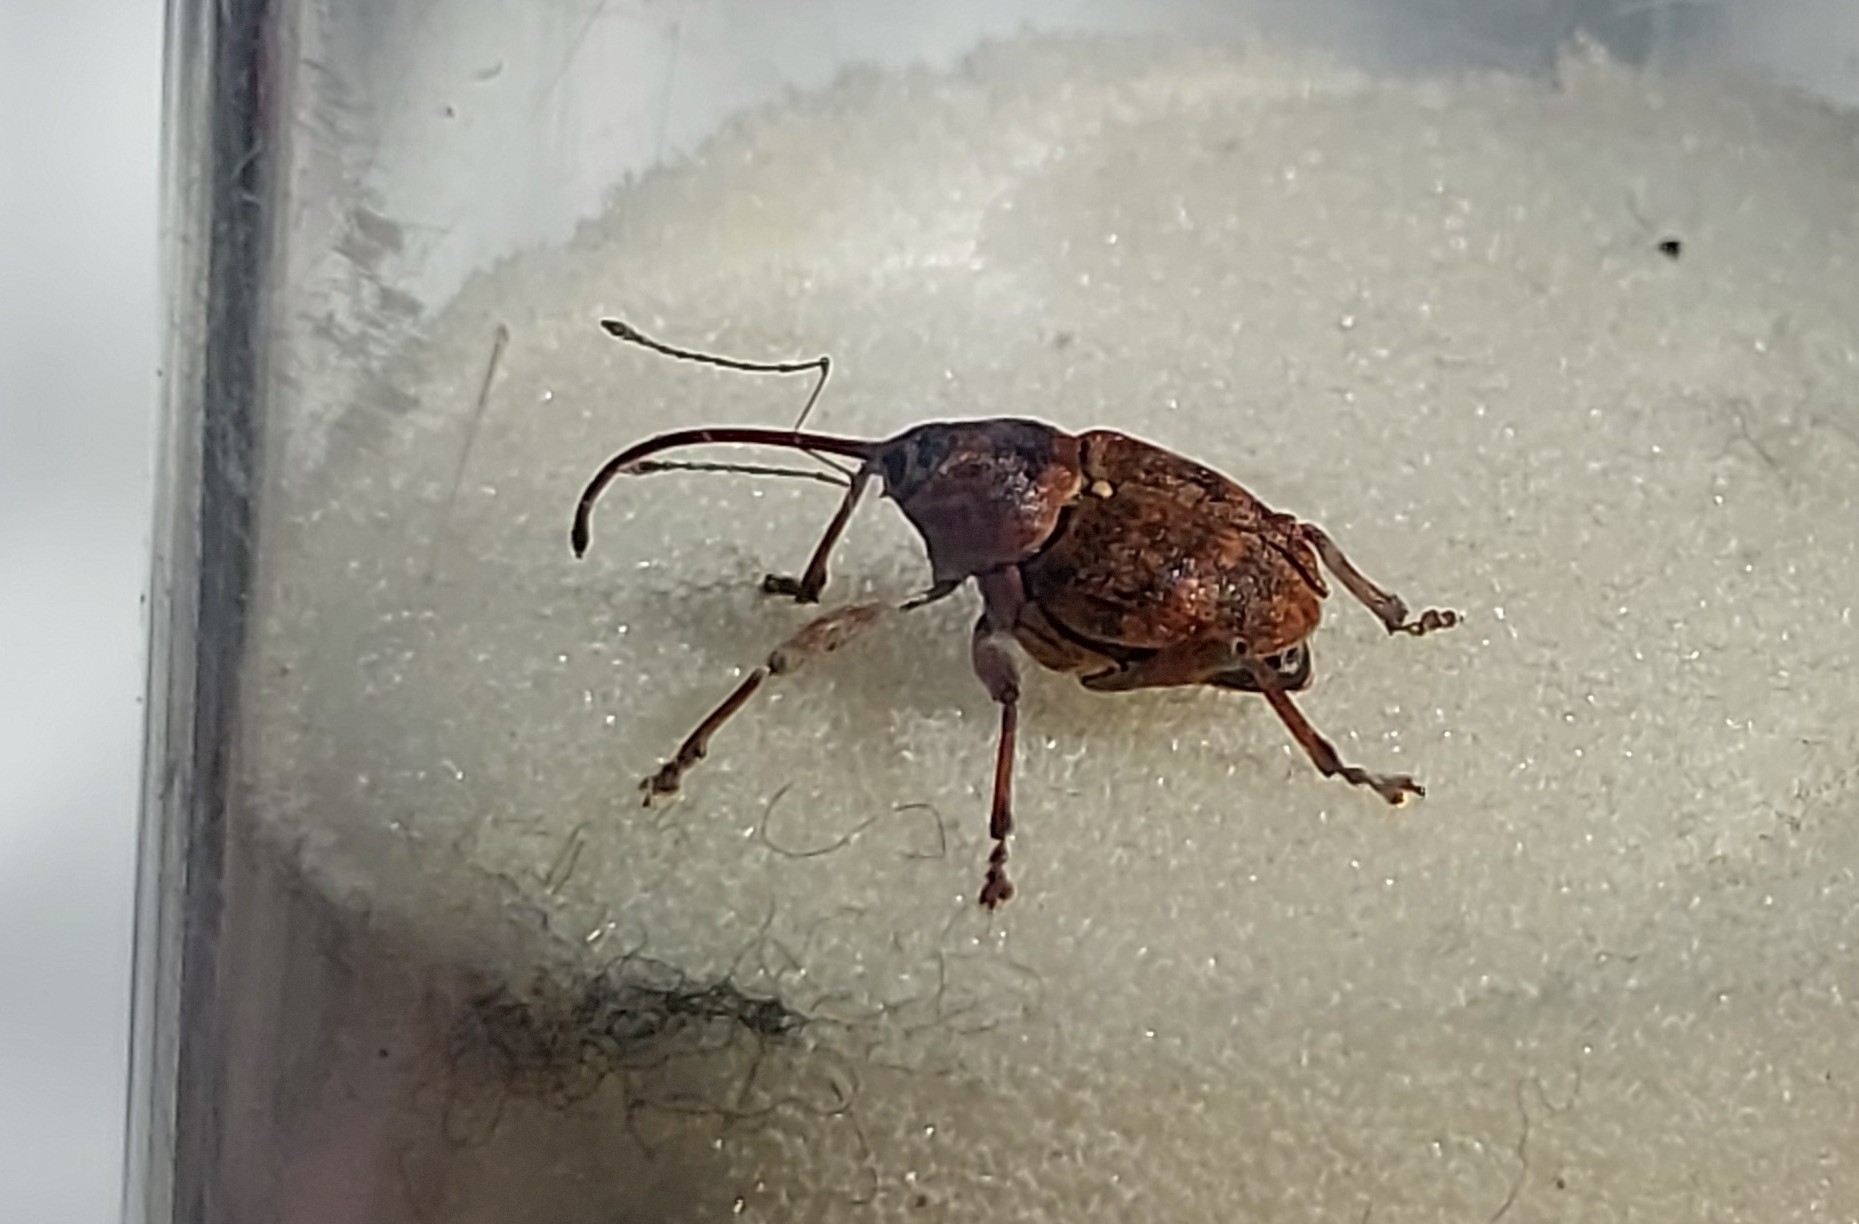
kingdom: Animalia
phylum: Arthropoda
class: Insecta
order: Coleoptera
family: Curculionidae
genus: Curculio
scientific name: Curculio glandium
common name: Acorn weevil
